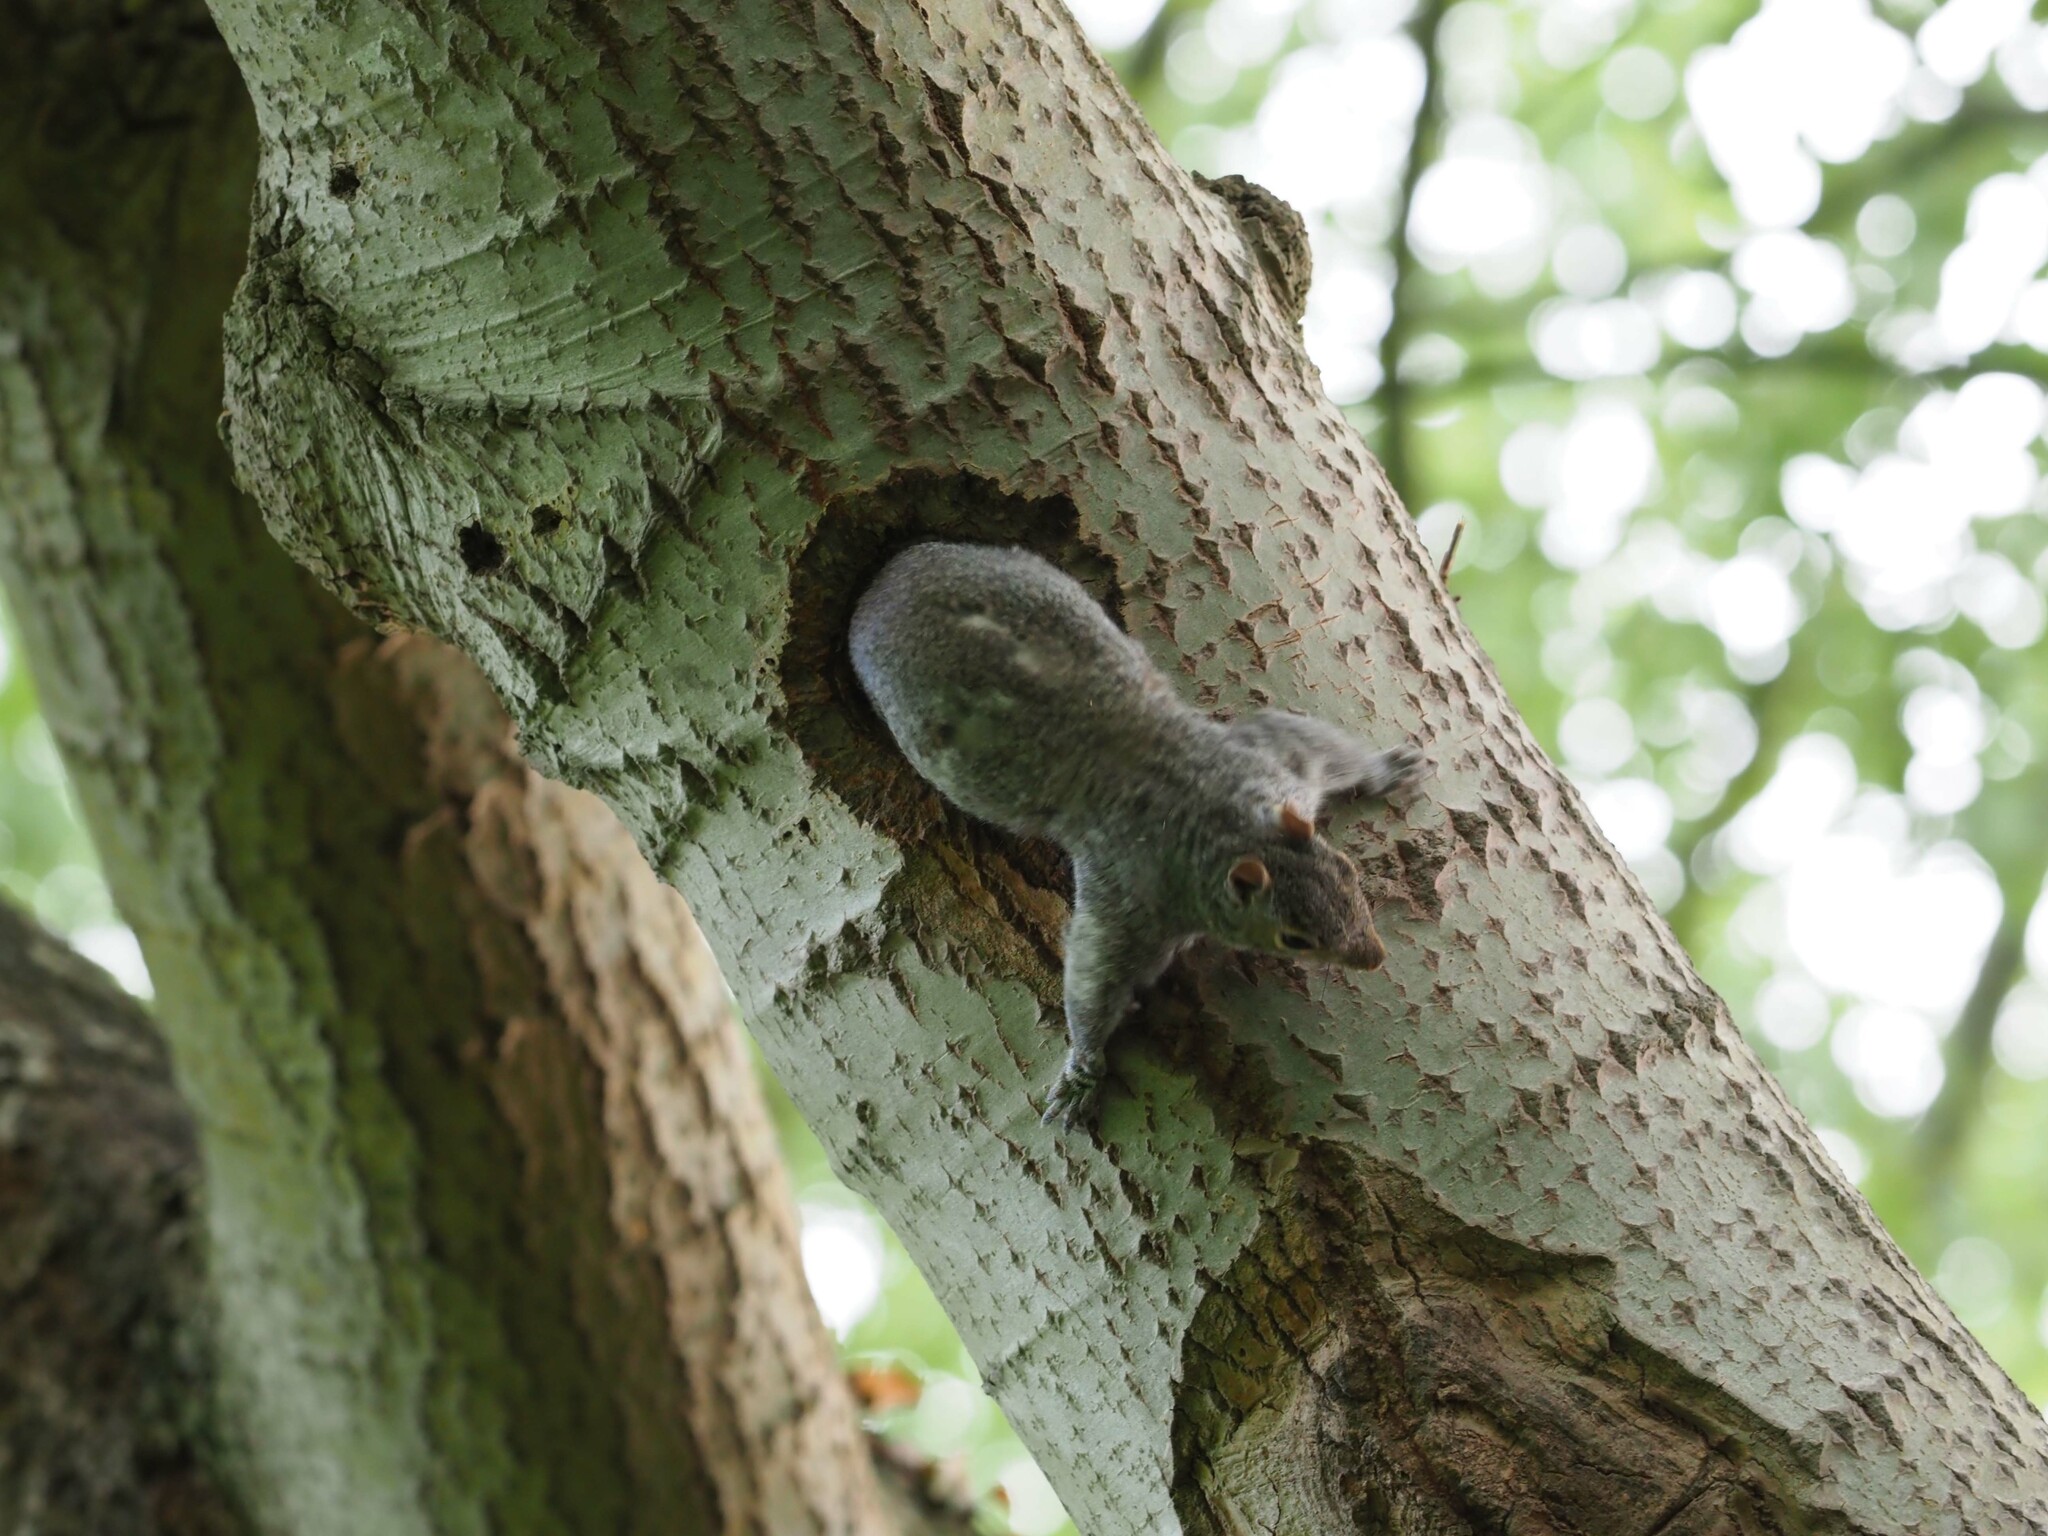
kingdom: Animalia
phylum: Chordata
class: Mammalia
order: Rodentia
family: Sciuridae
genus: Sciurus
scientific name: Sciurus carolinensis
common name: Eastern gray squirrel
